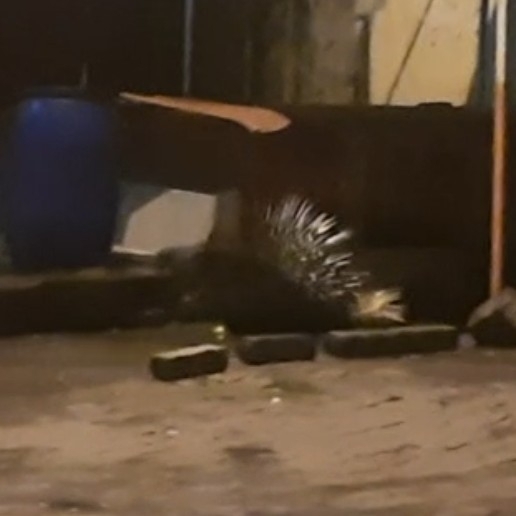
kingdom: Animalia
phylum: Chordata
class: Mammalia
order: Rodentia
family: Hystricidae
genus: Hystrix
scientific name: Hystrix indica
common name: Indian crested porcupine
